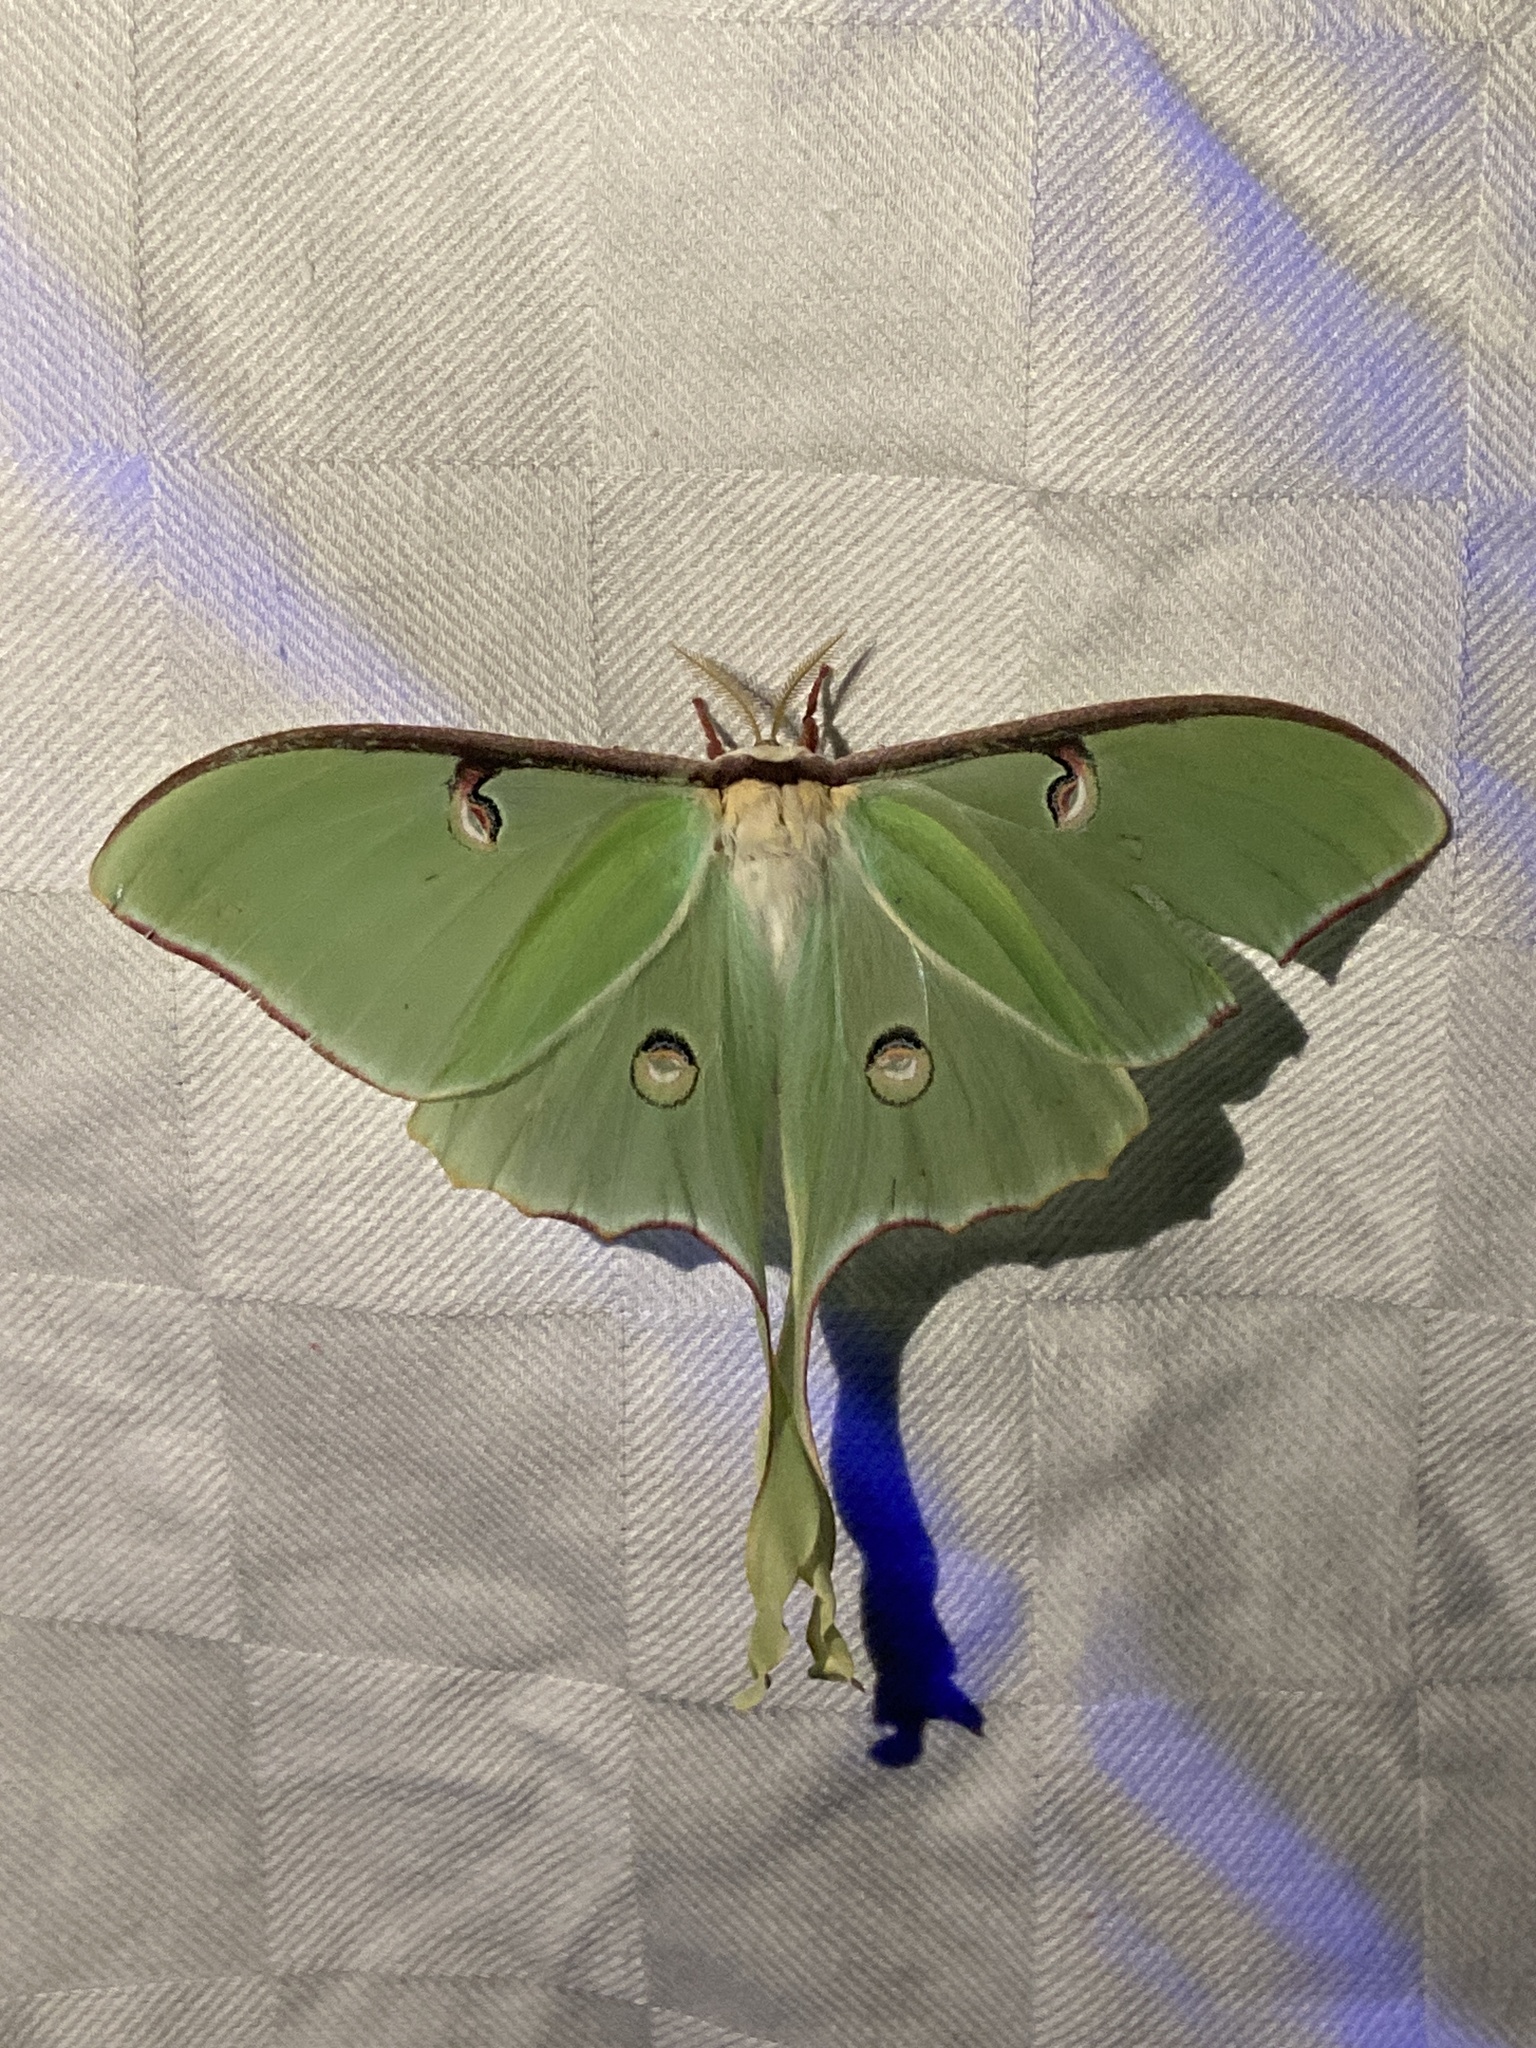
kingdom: Animalia
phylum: Arthropoda
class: Insecta
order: Lepidoptera
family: Saturniidae
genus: Actias
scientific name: Actias luna
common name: Luna moth
